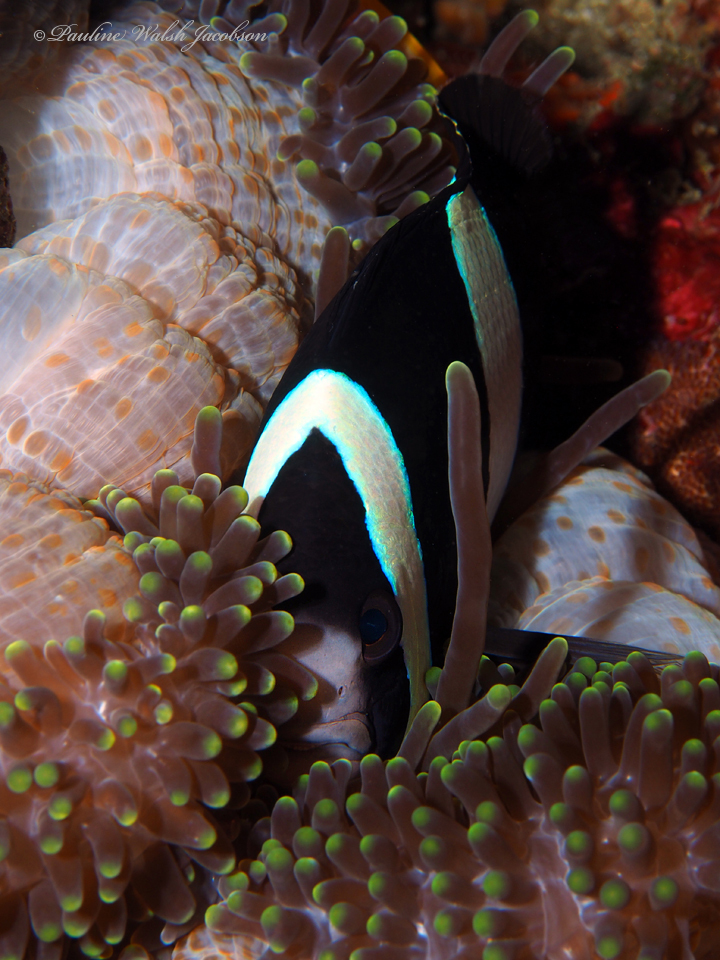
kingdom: Animalia
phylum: Chordata
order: Perciformes
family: Pomacentridae
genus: Amphiprion
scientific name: Amphiprion clarkii
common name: Clark's anemonefish
